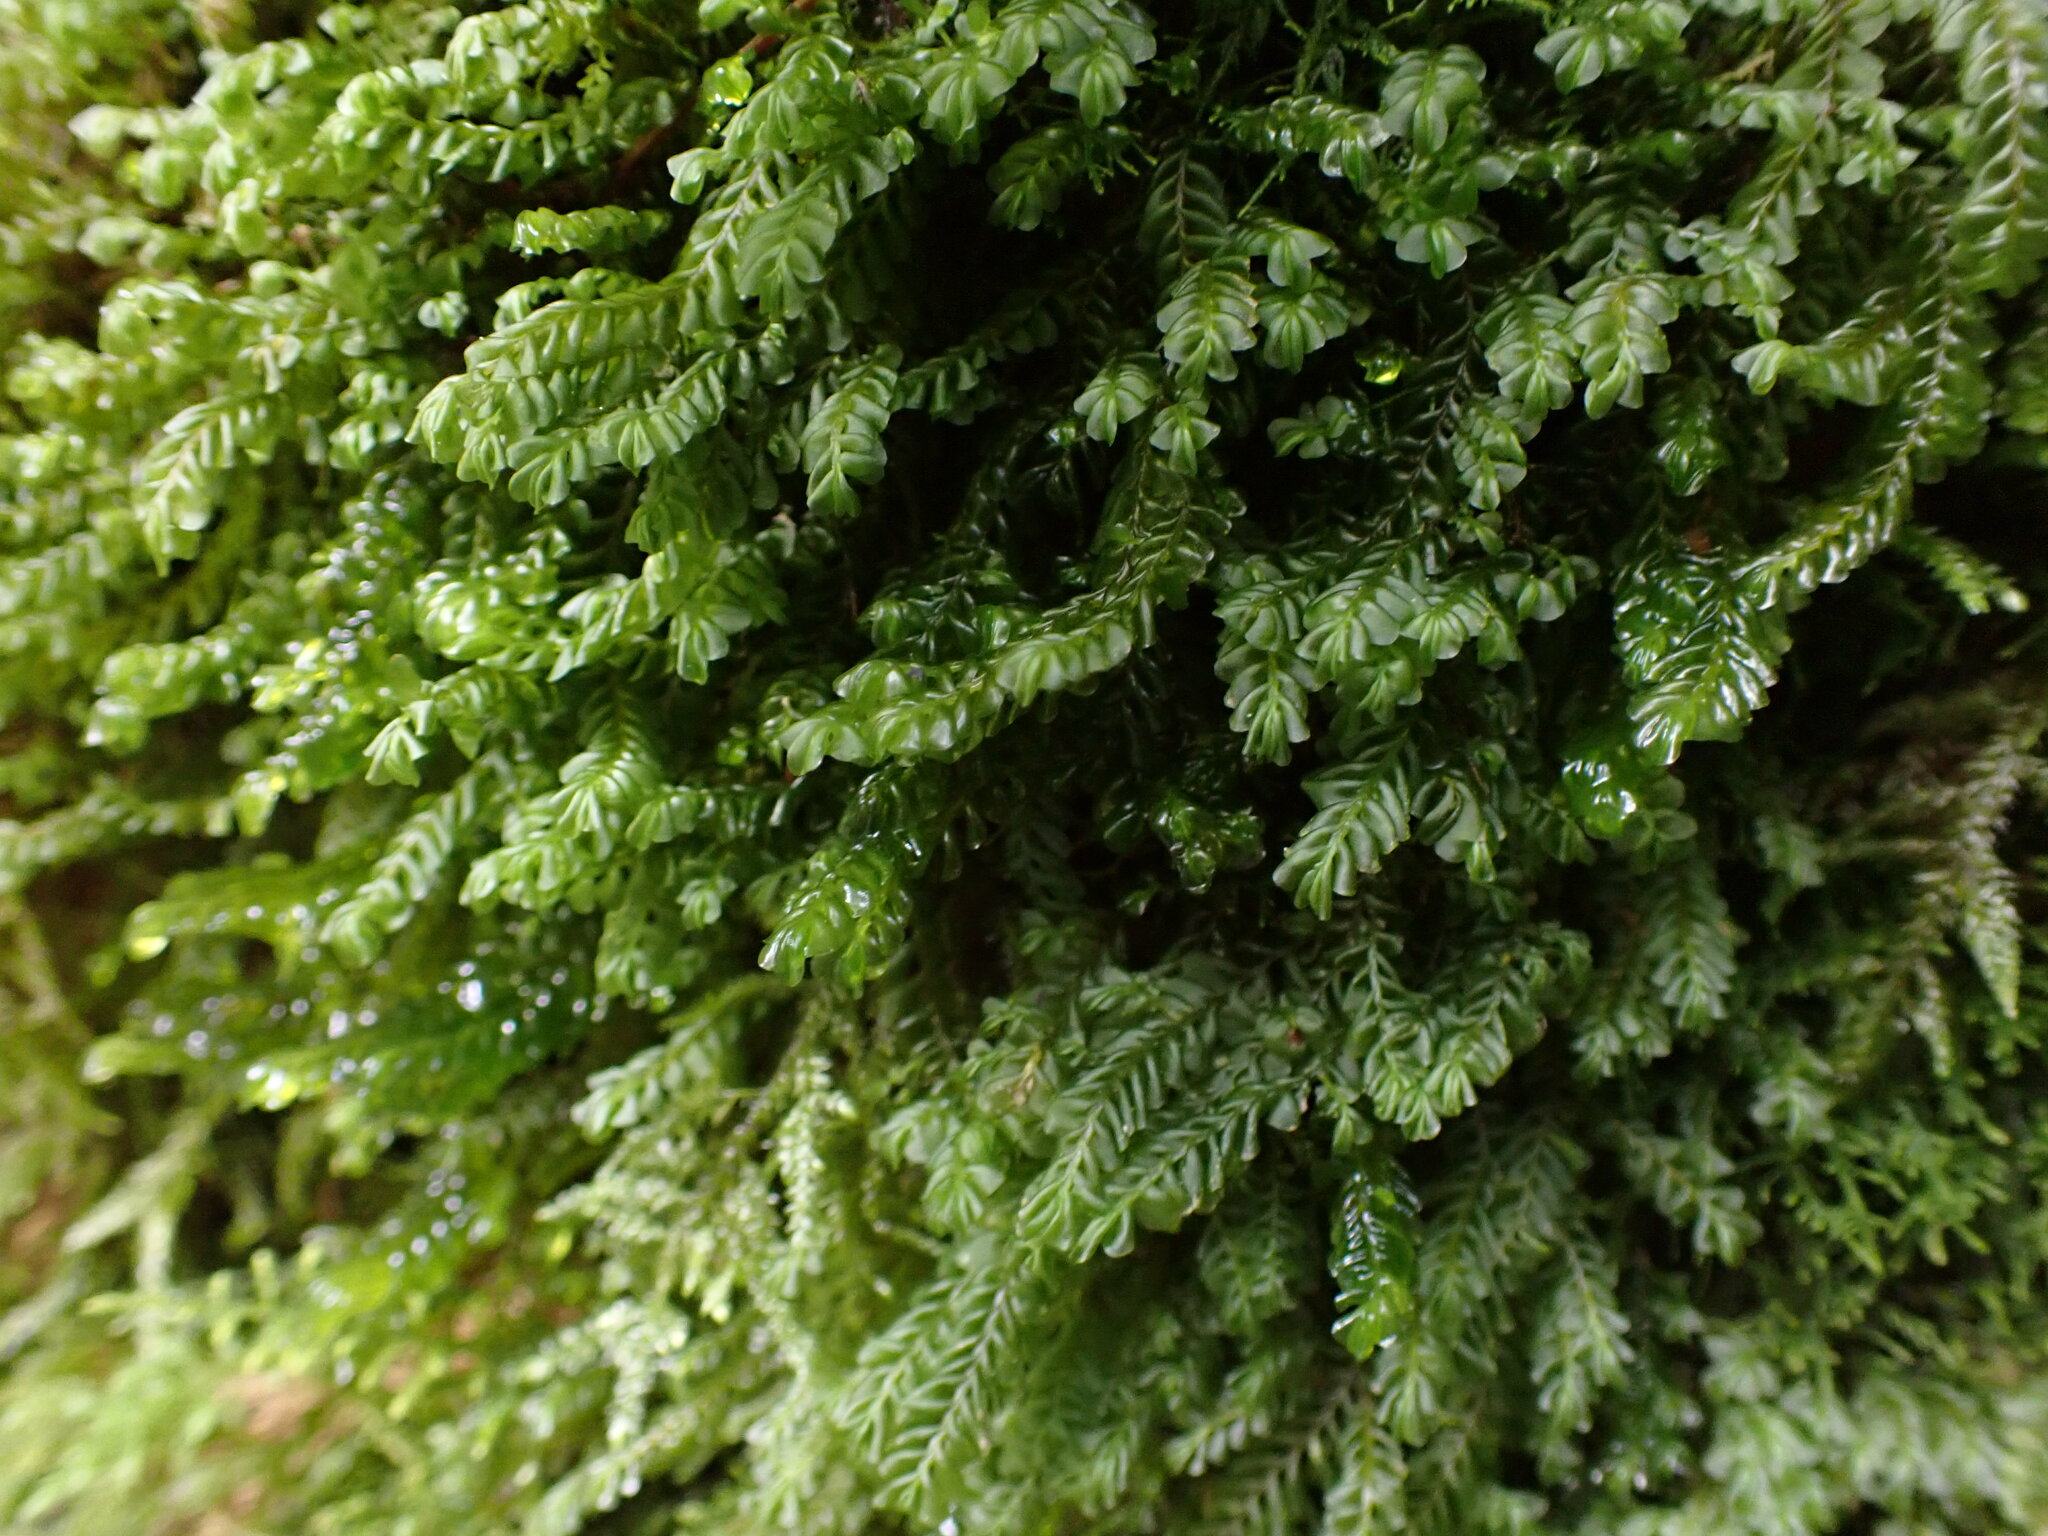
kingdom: Plantae
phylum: Marchantiophyta
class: Jungermanniopsida
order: Jungermanniales
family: Plagiochilaceae
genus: Plagiochila
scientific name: Plagiochila porelloides
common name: Lesser featherwort
